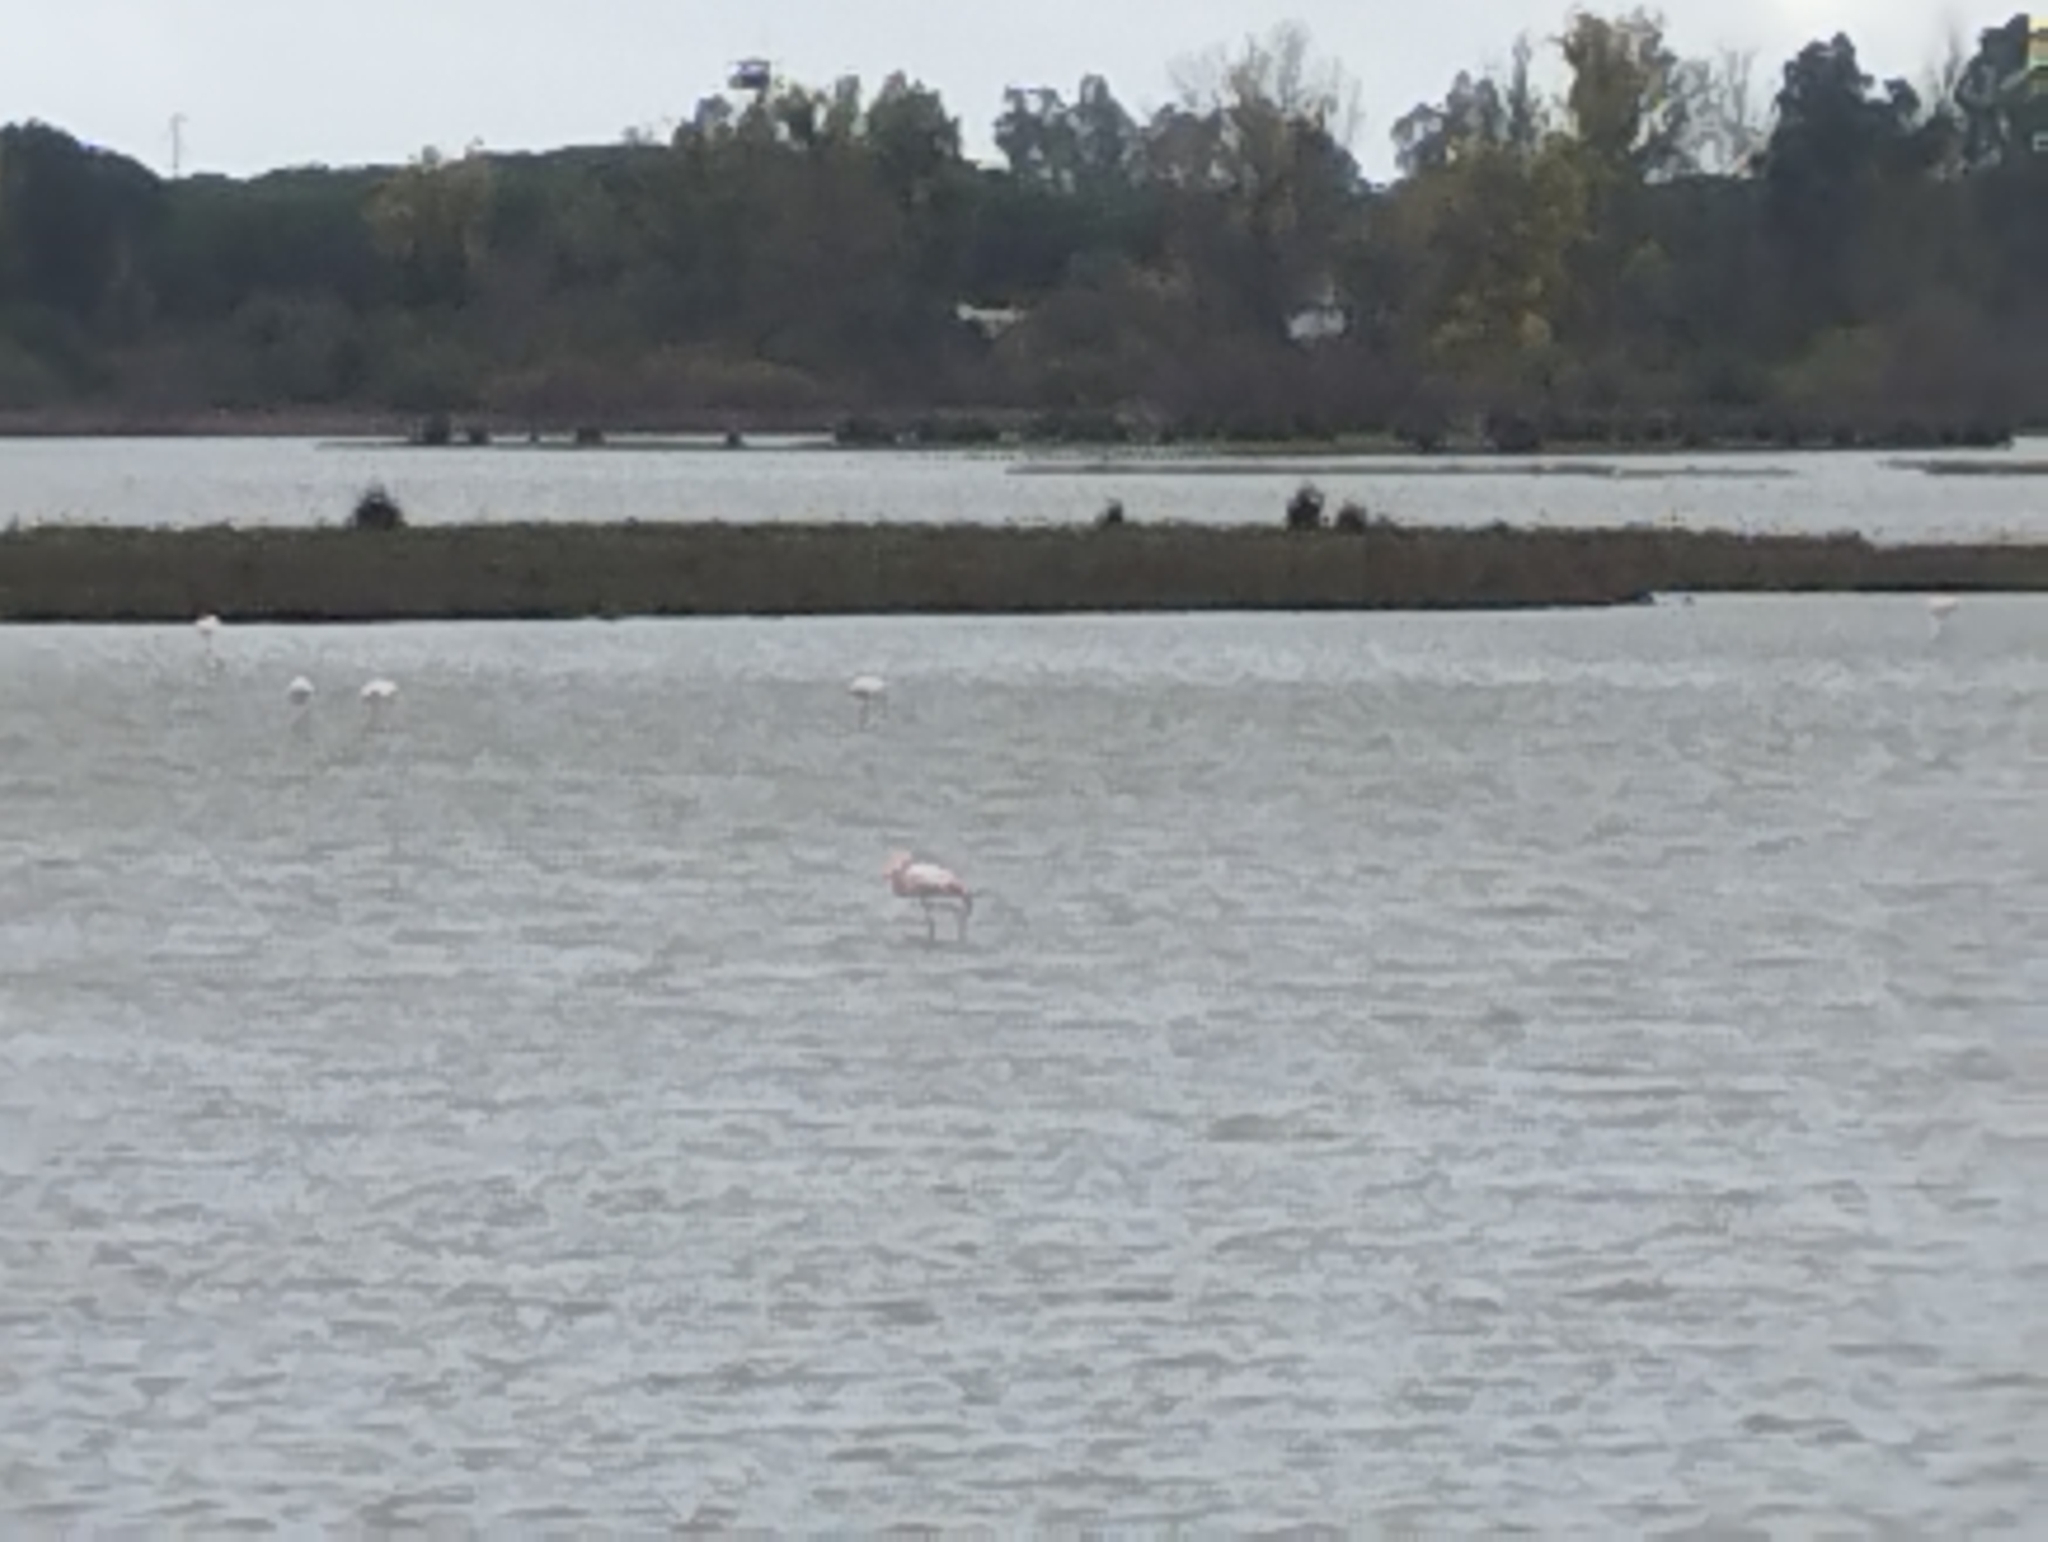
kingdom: Animalia
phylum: Chordata
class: Aves
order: Phoenicopteriformes
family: Phoenicopteridae
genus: Phoenicopterus
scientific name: Phoenicopterus roseus
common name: Greater flamingo
